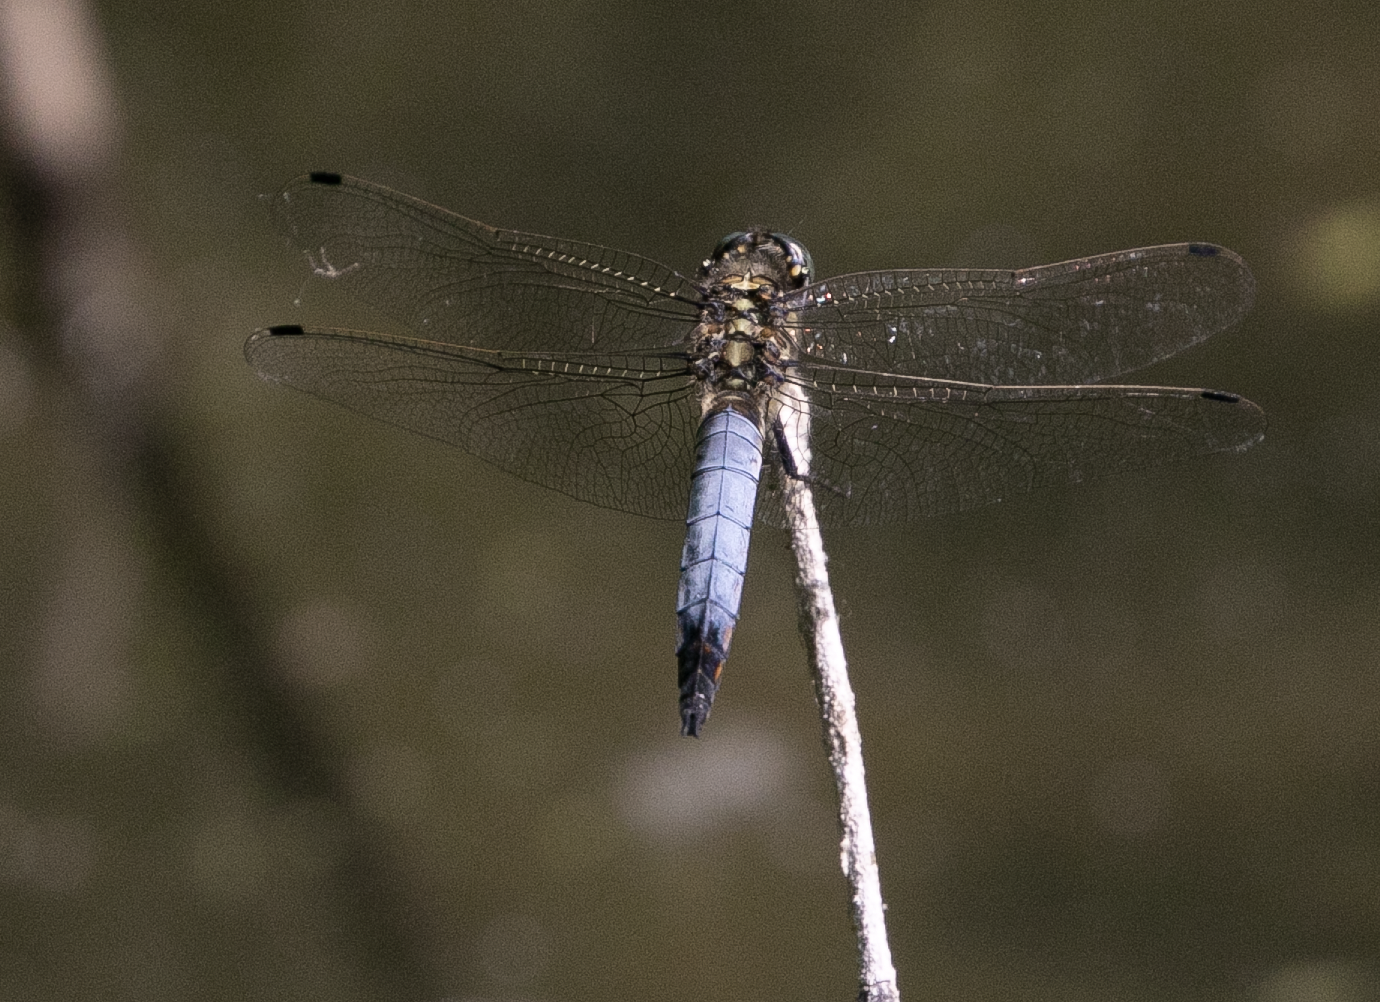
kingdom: Animalia
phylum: Arthropoda
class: Insecta
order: Odonata
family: Libellulidae
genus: Orthetrum
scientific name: Orthetrum cancellatum
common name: Black-tailed skimmer
